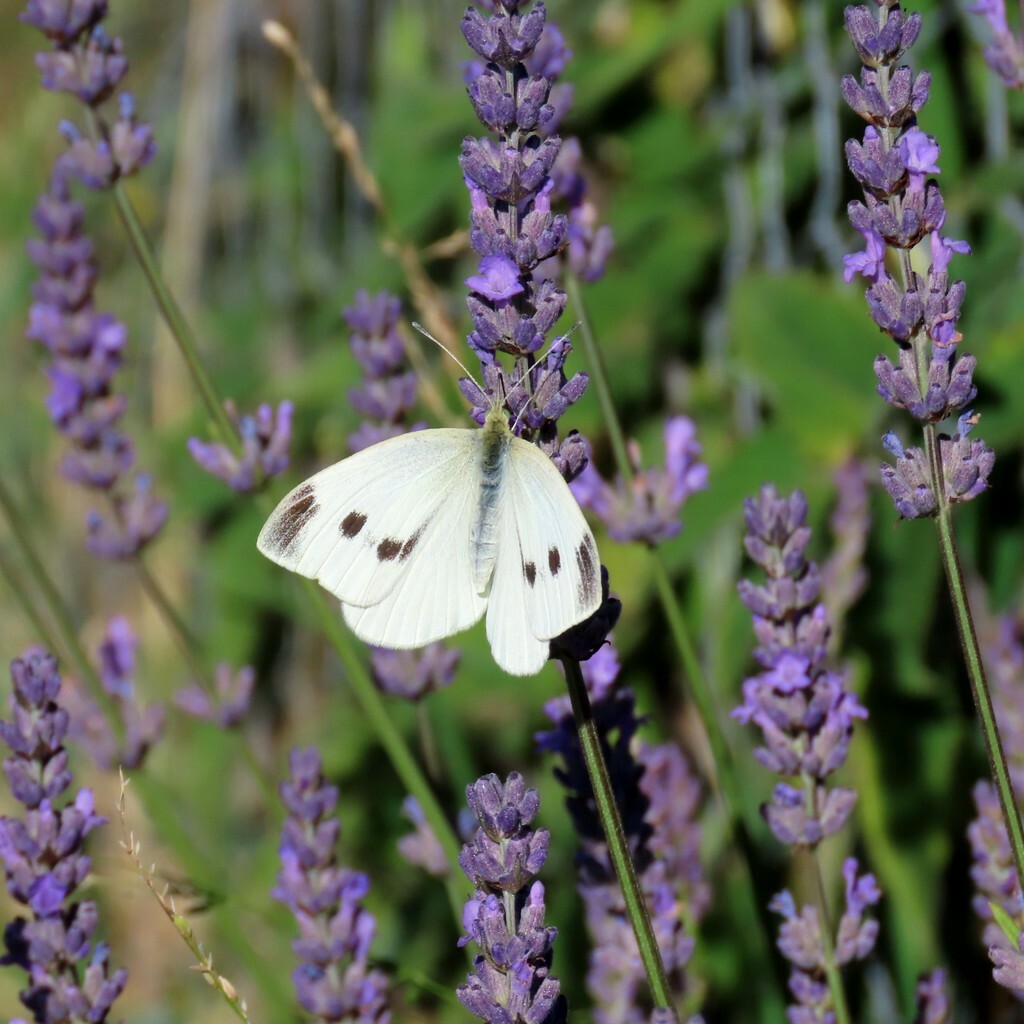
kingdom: Animalia
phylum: Arthropoda
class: Insecta
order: Lepidoptera
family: Pieridae
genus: Pieris
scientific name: Pieris rapae
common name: Small white
